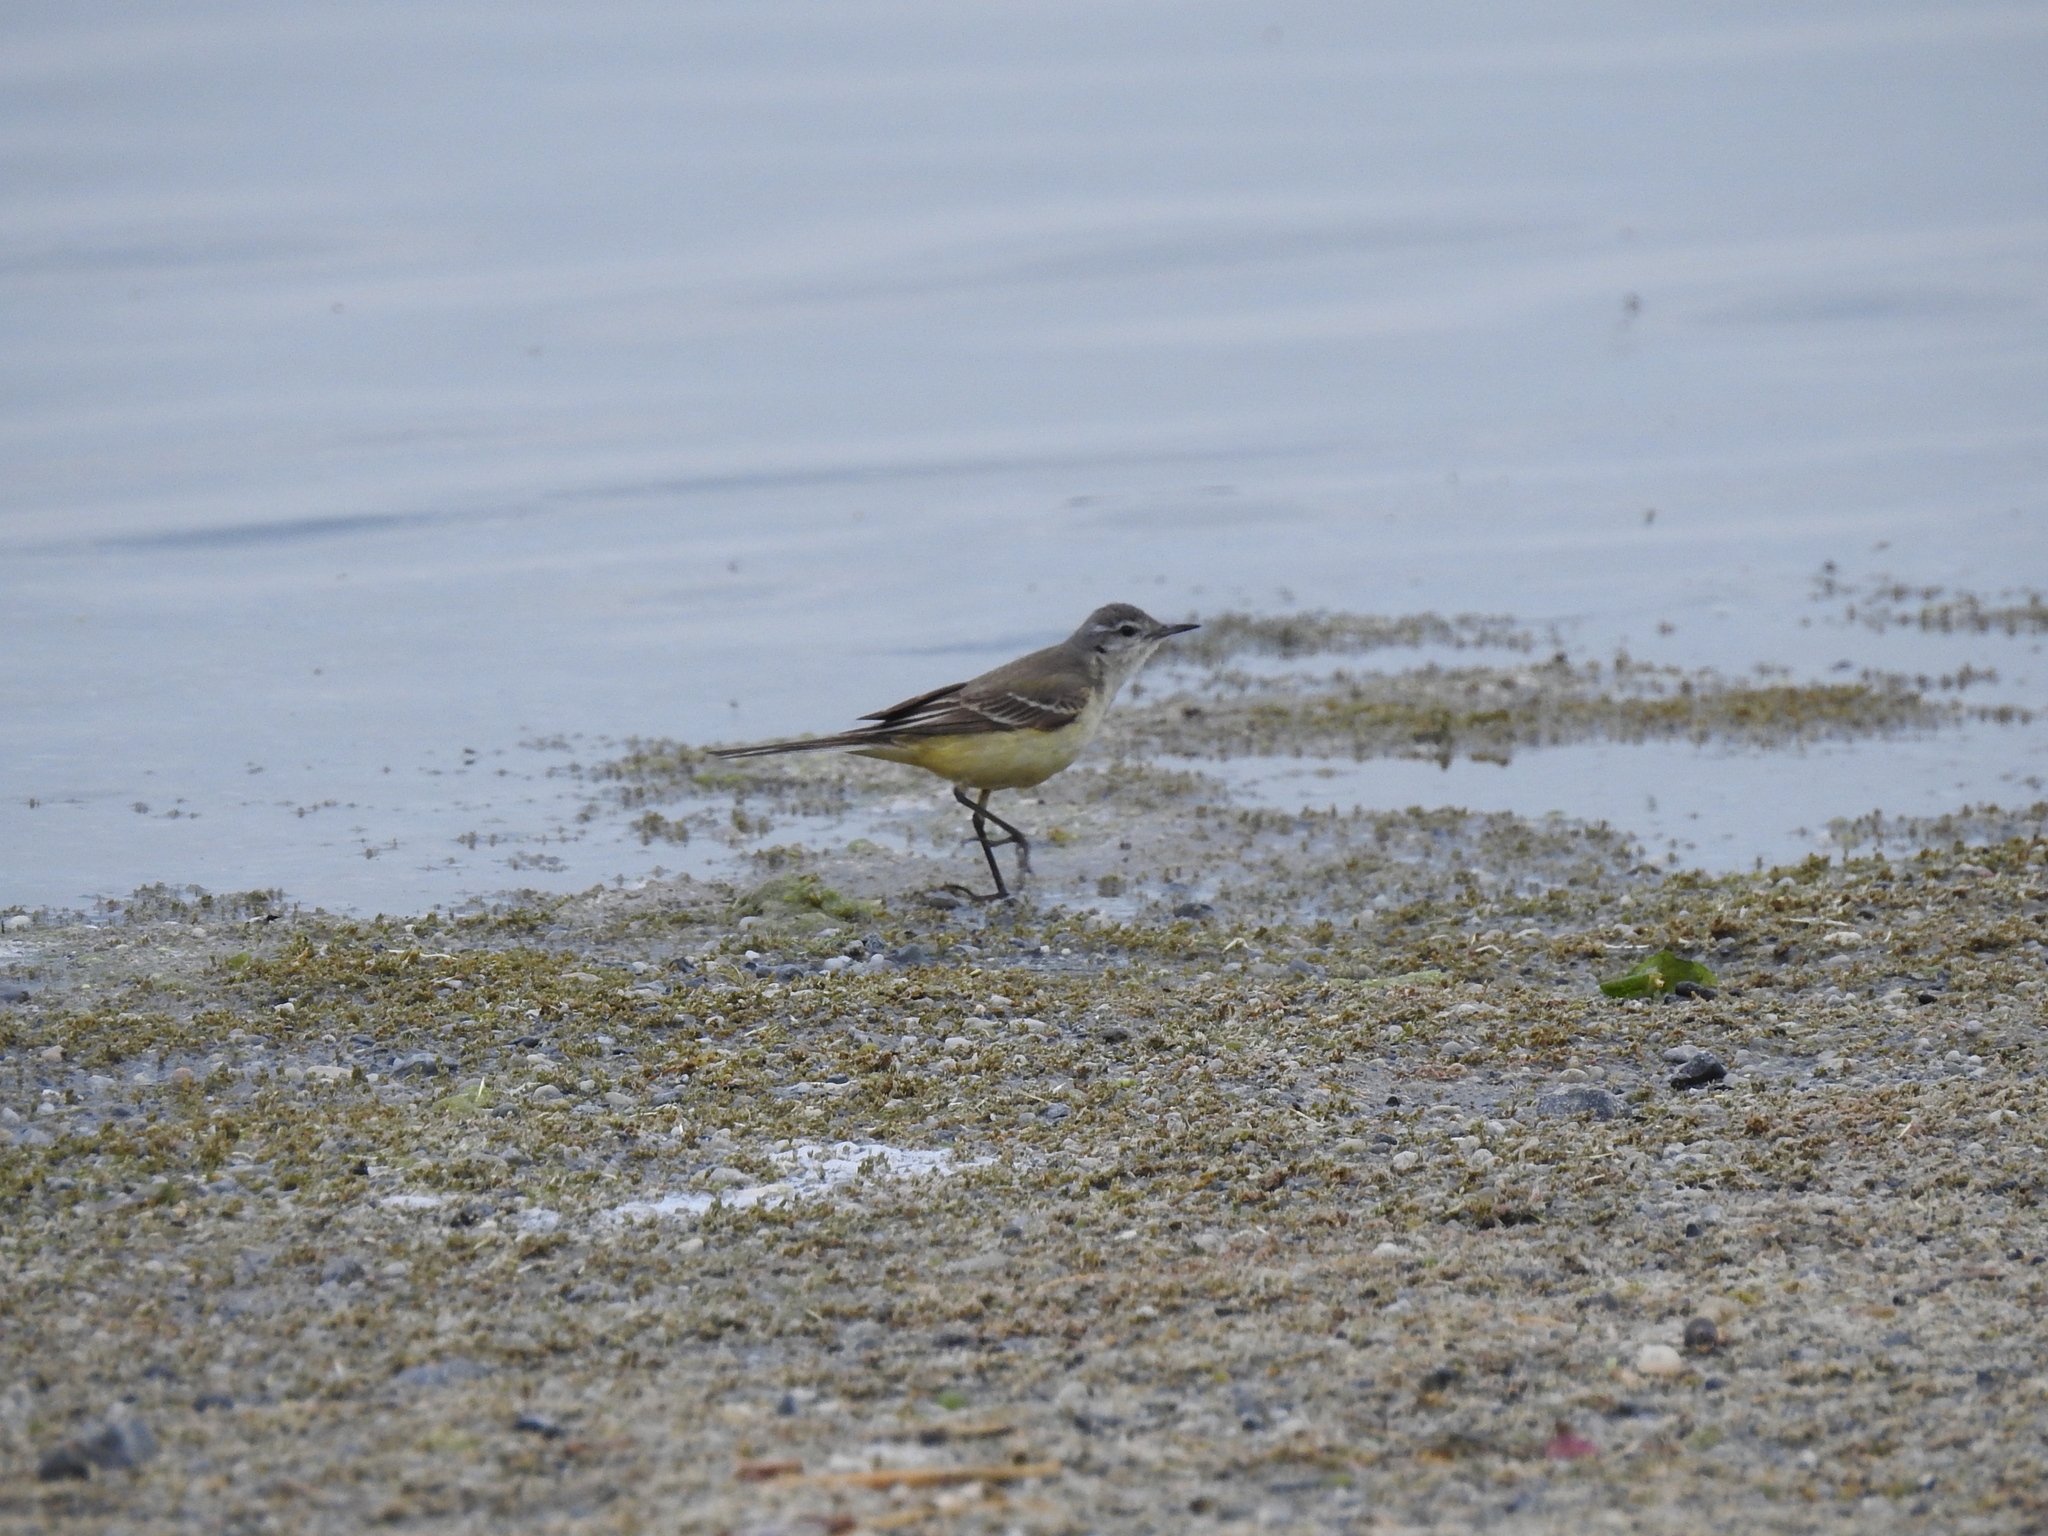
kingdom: Animalia
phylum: Chordata
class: Aves
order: Passeriformes
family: Motacillidae
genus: Motacilla
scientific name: Motacilla flava
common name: Western yellow wagtail
